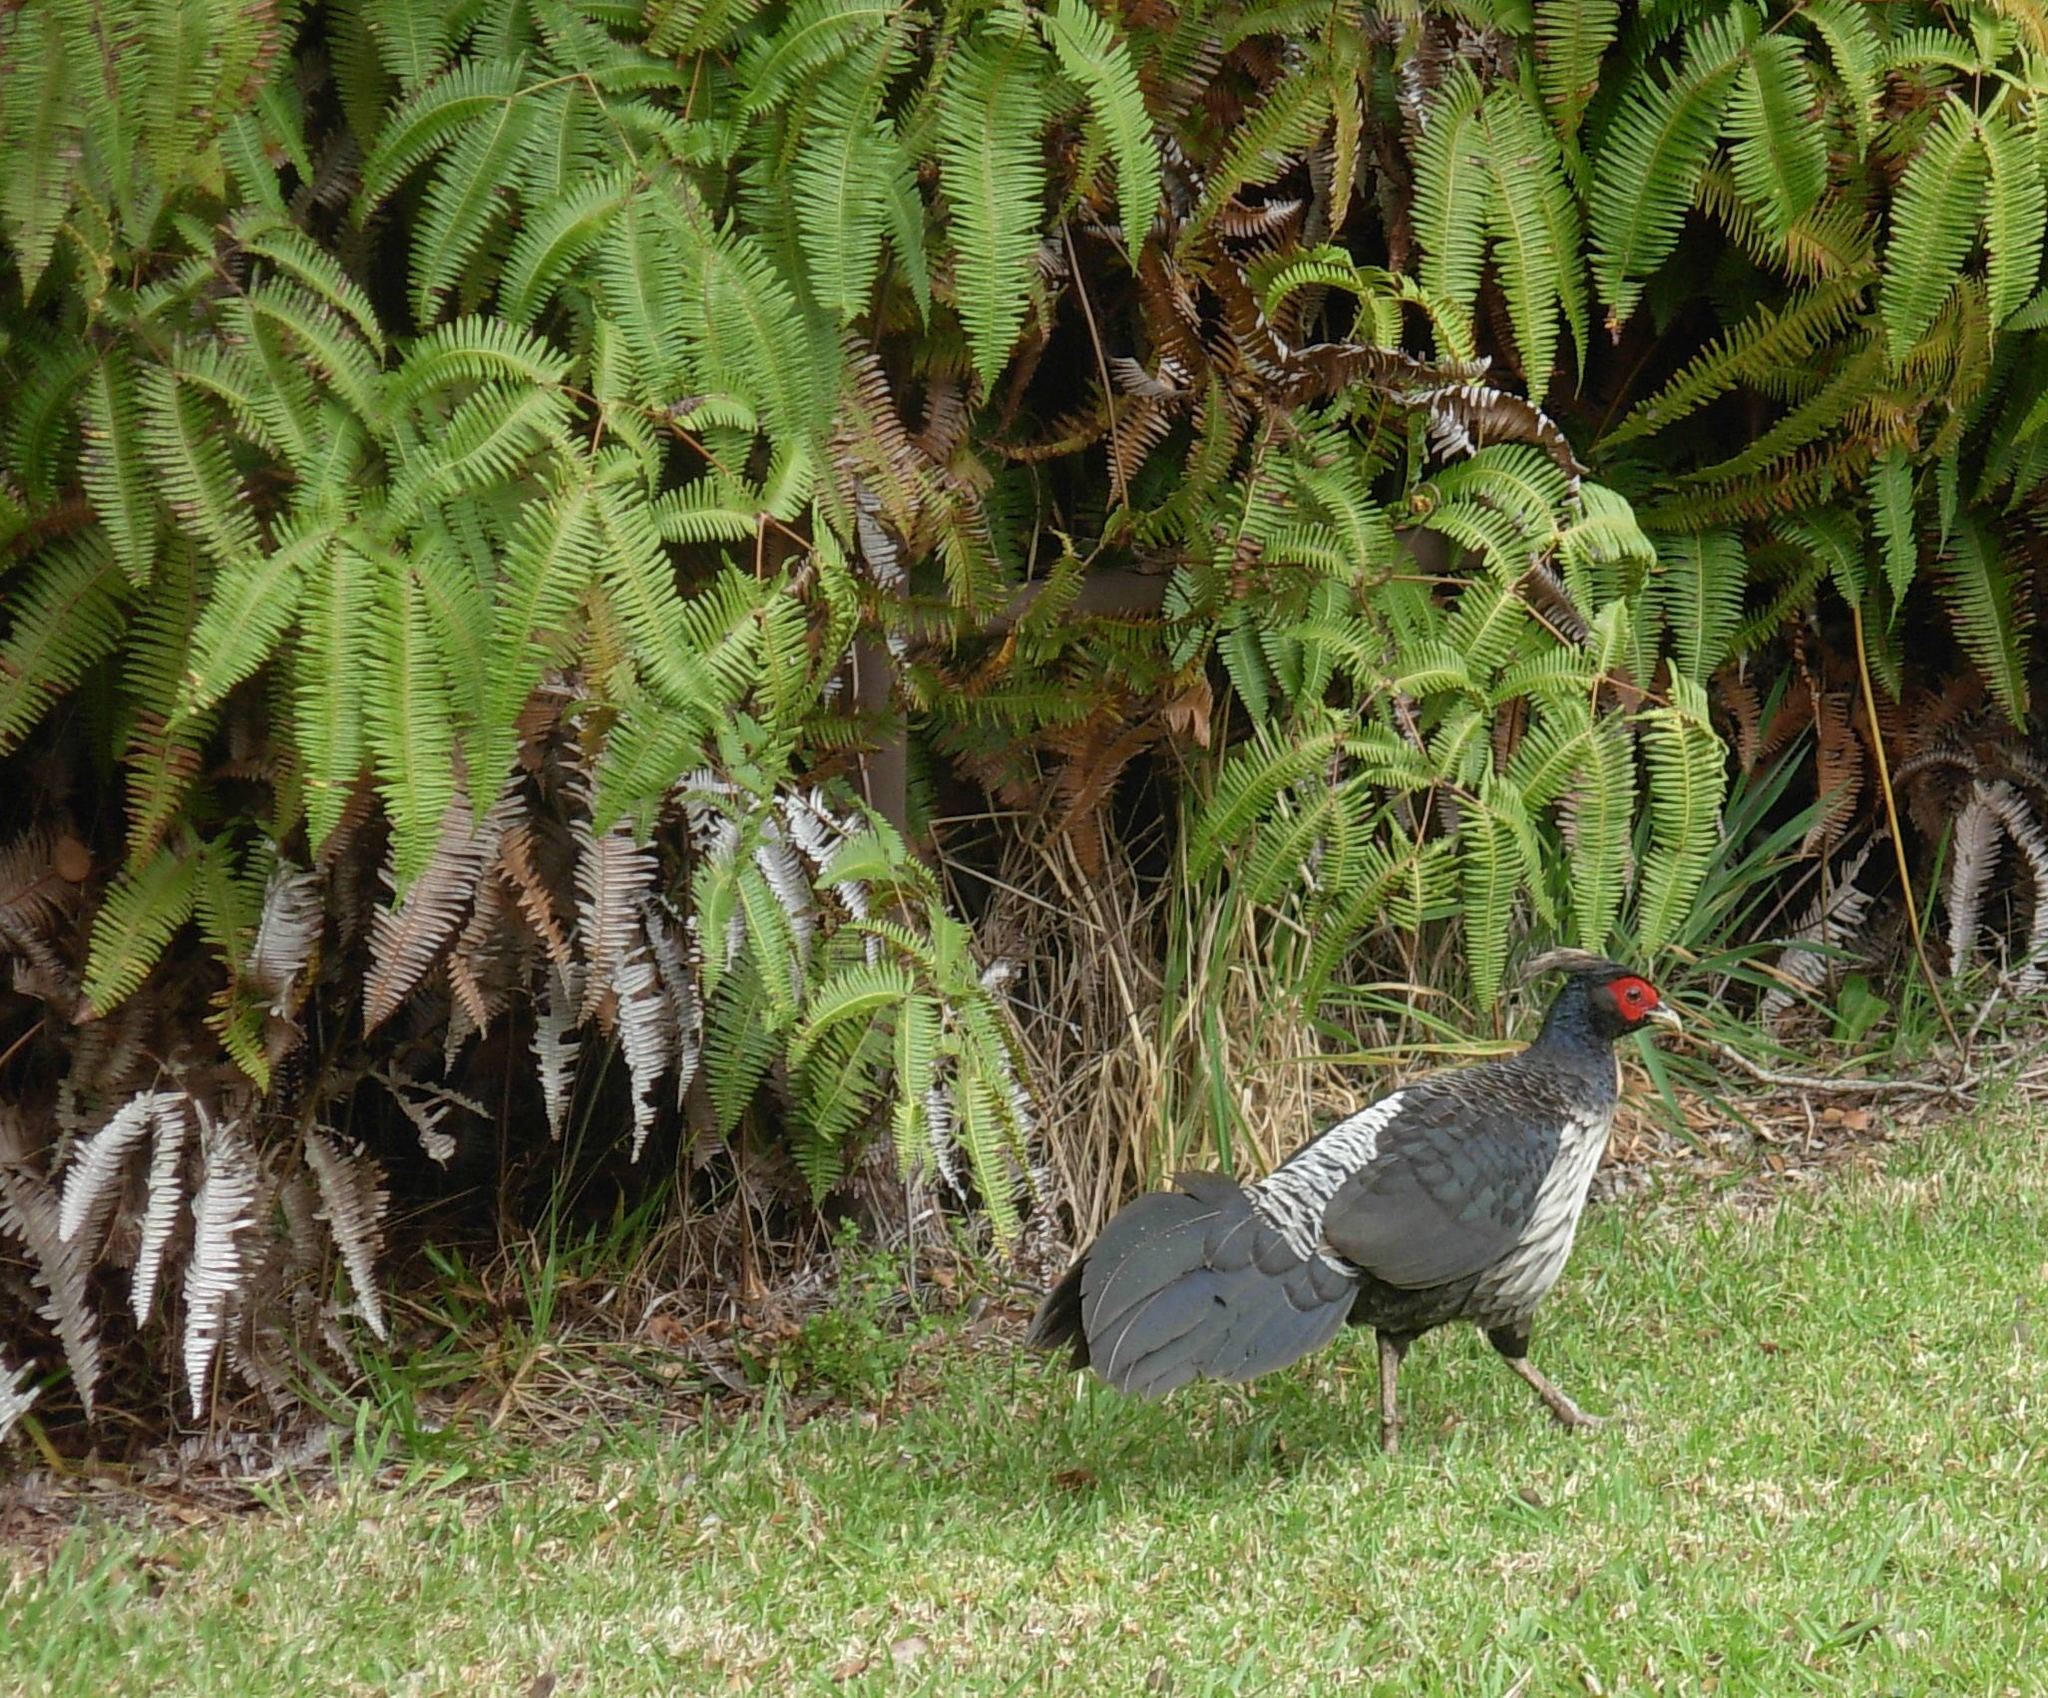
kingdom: Animalia
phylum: Chordata
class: Aves
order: Galliformes
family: Phasianidae
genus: Lophura
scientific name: Lophura leucomelanos
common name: Kalij pheasant
